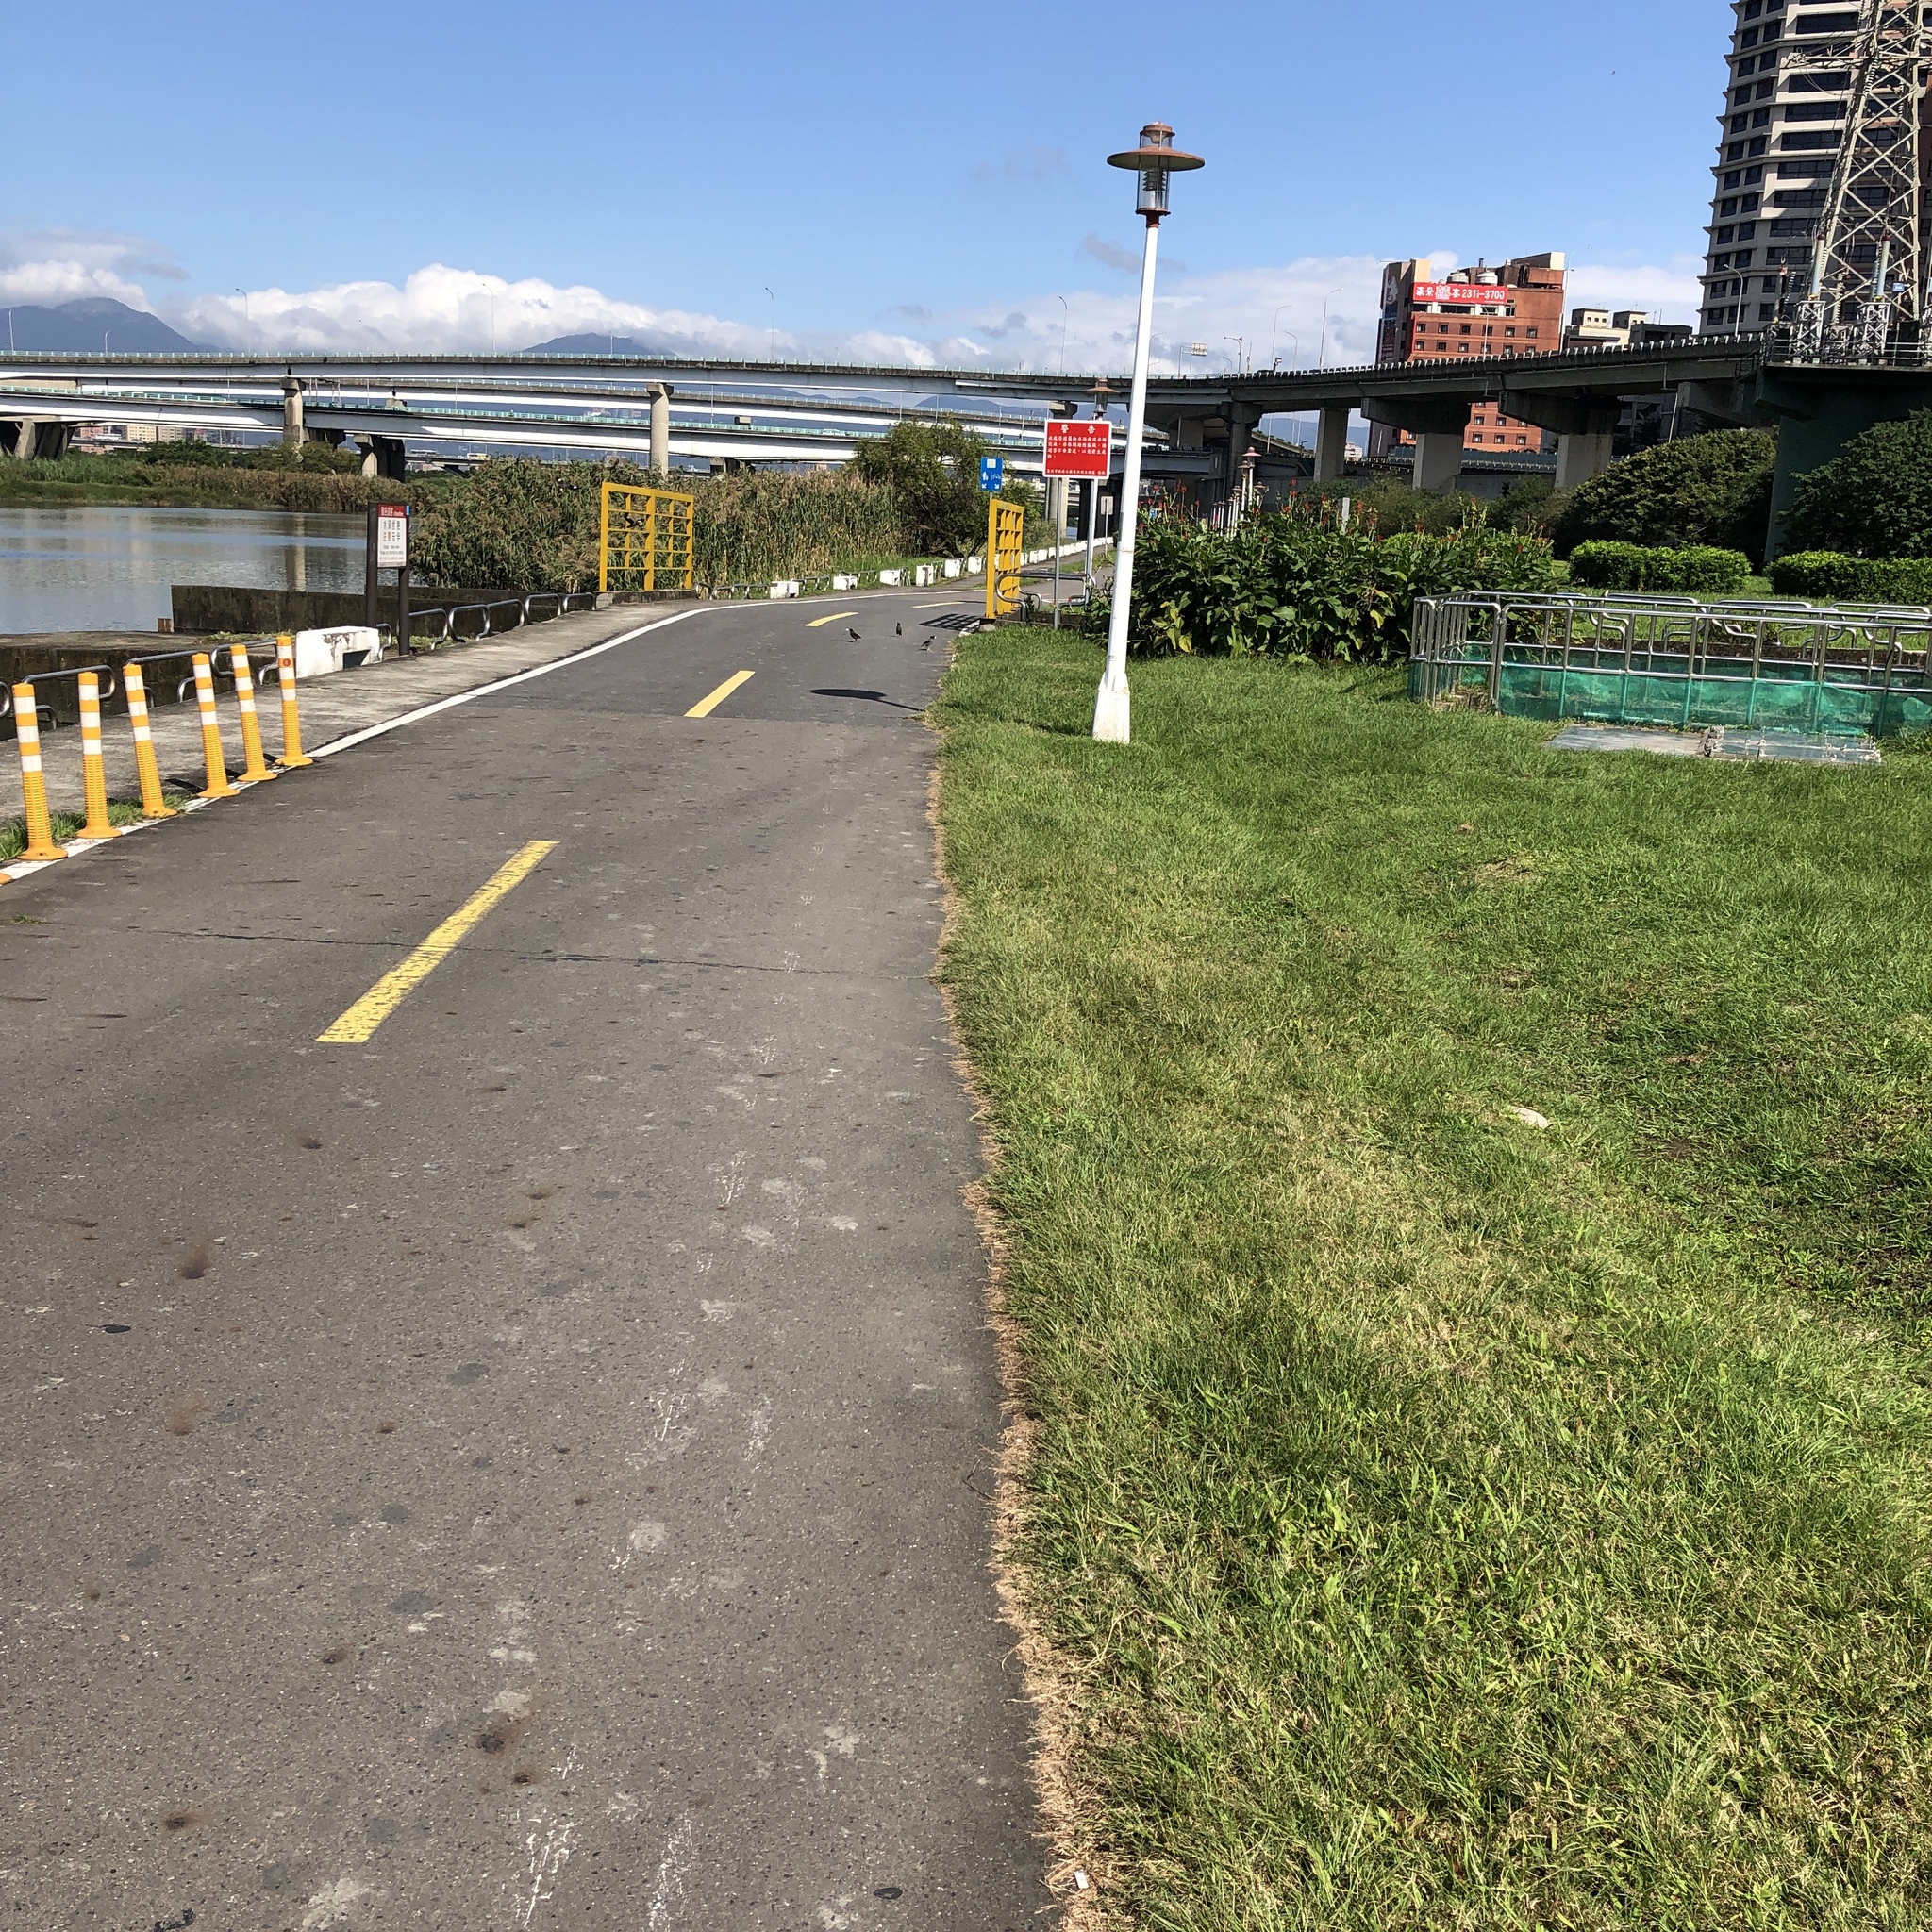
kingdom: Animalia
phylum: Chordata
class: Aves
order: Passeriformes
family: Sturnidae
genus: Acridotheres
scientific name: Acridotheres javanicus
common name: Javan myna
